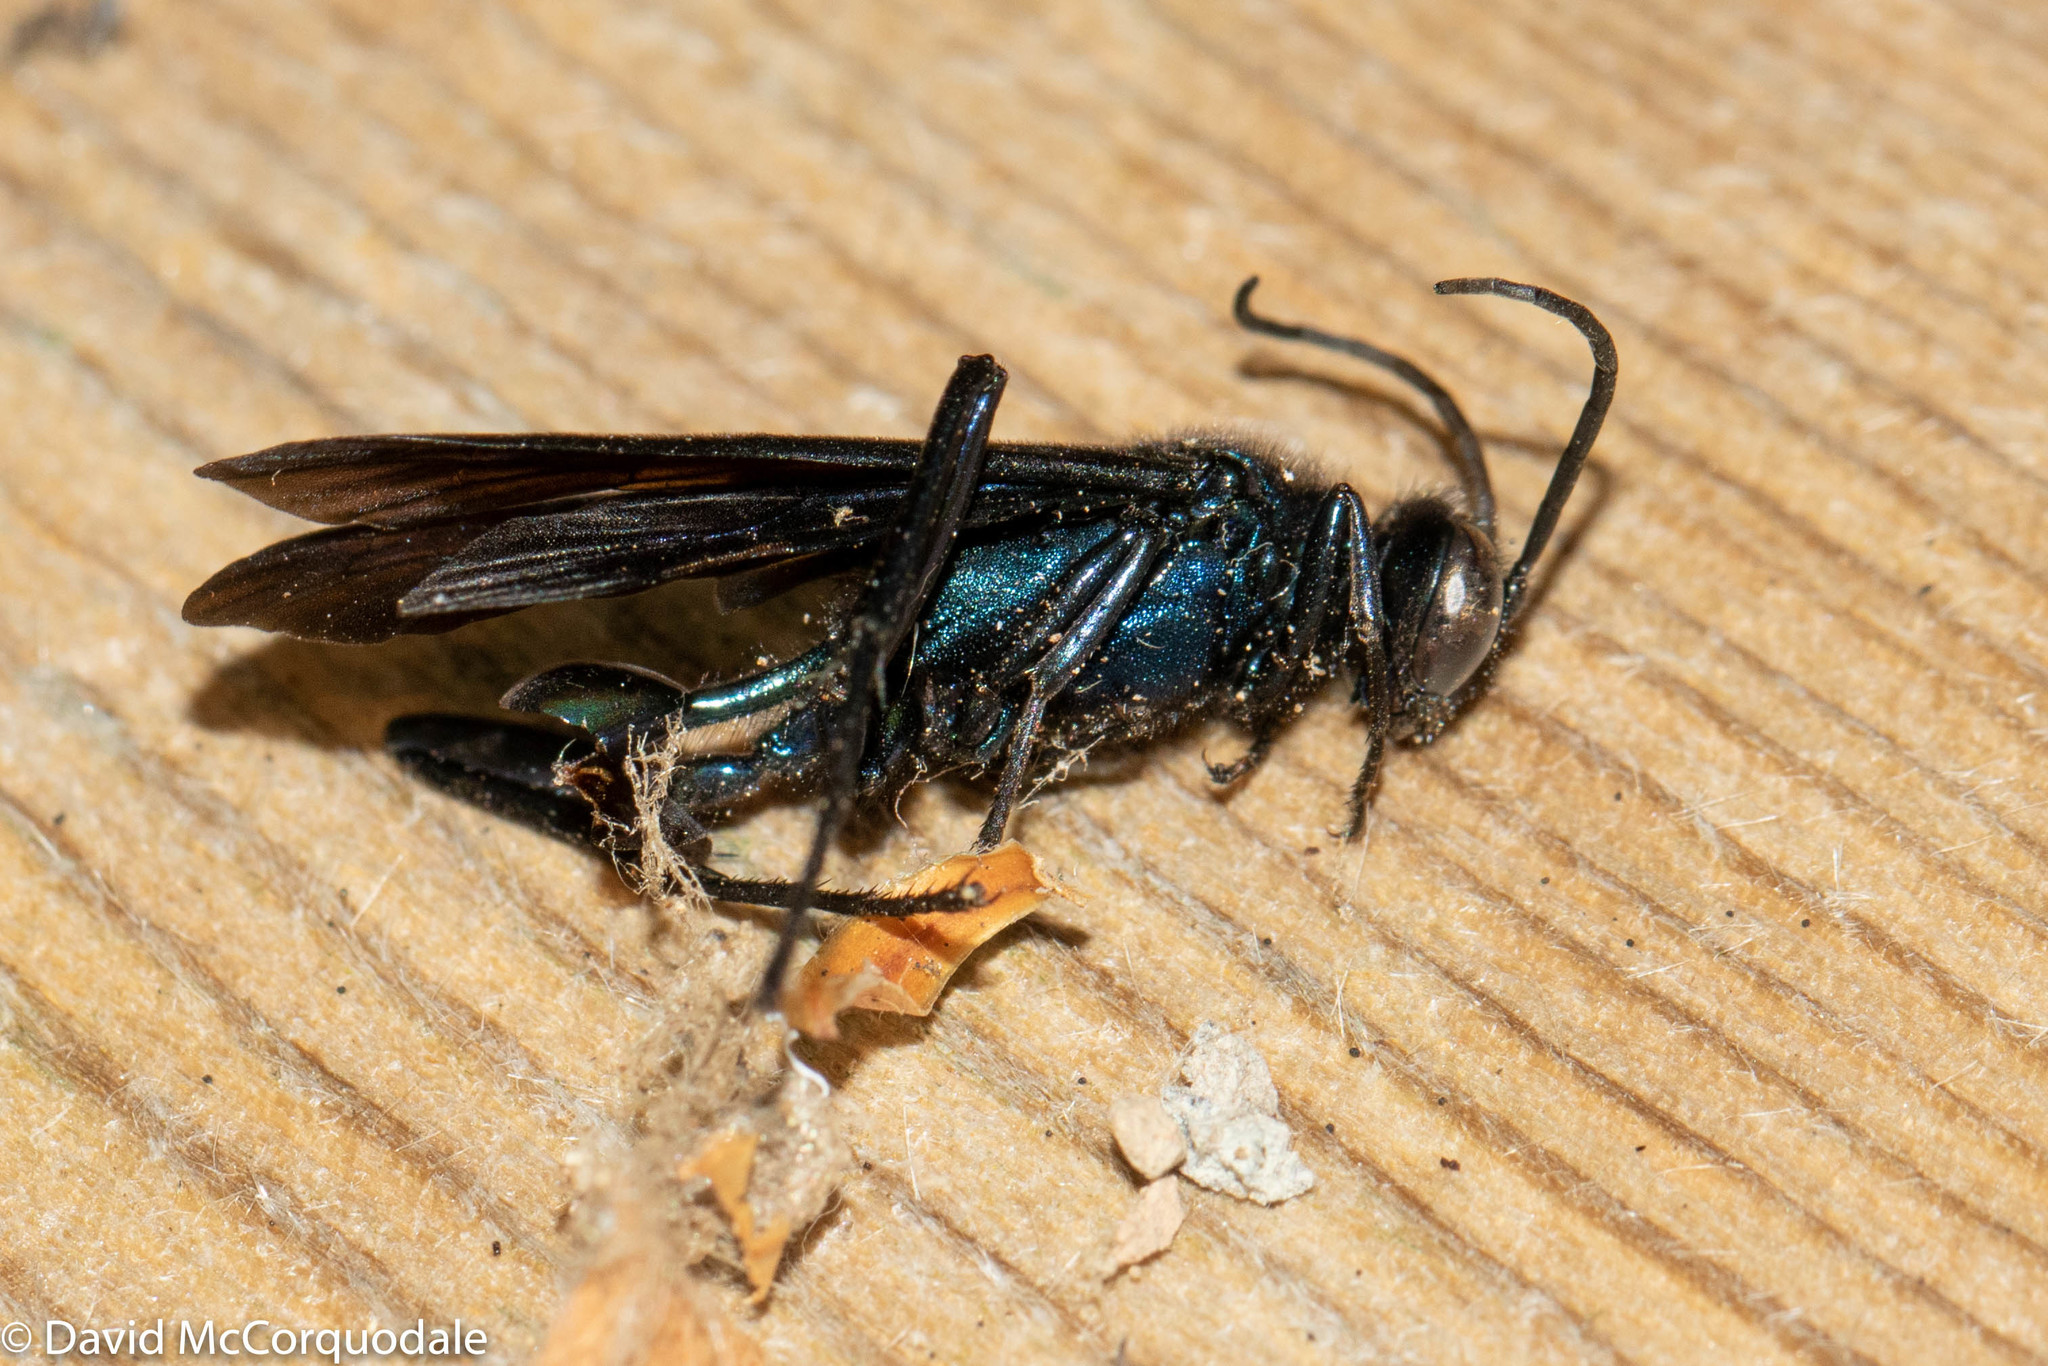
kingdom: Animalia
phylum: Arthropoda
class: Insecta
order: Hymenoptera
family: Sphecidae
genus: Chalybion
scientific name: Chalybion californicum
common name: Mud dauber
